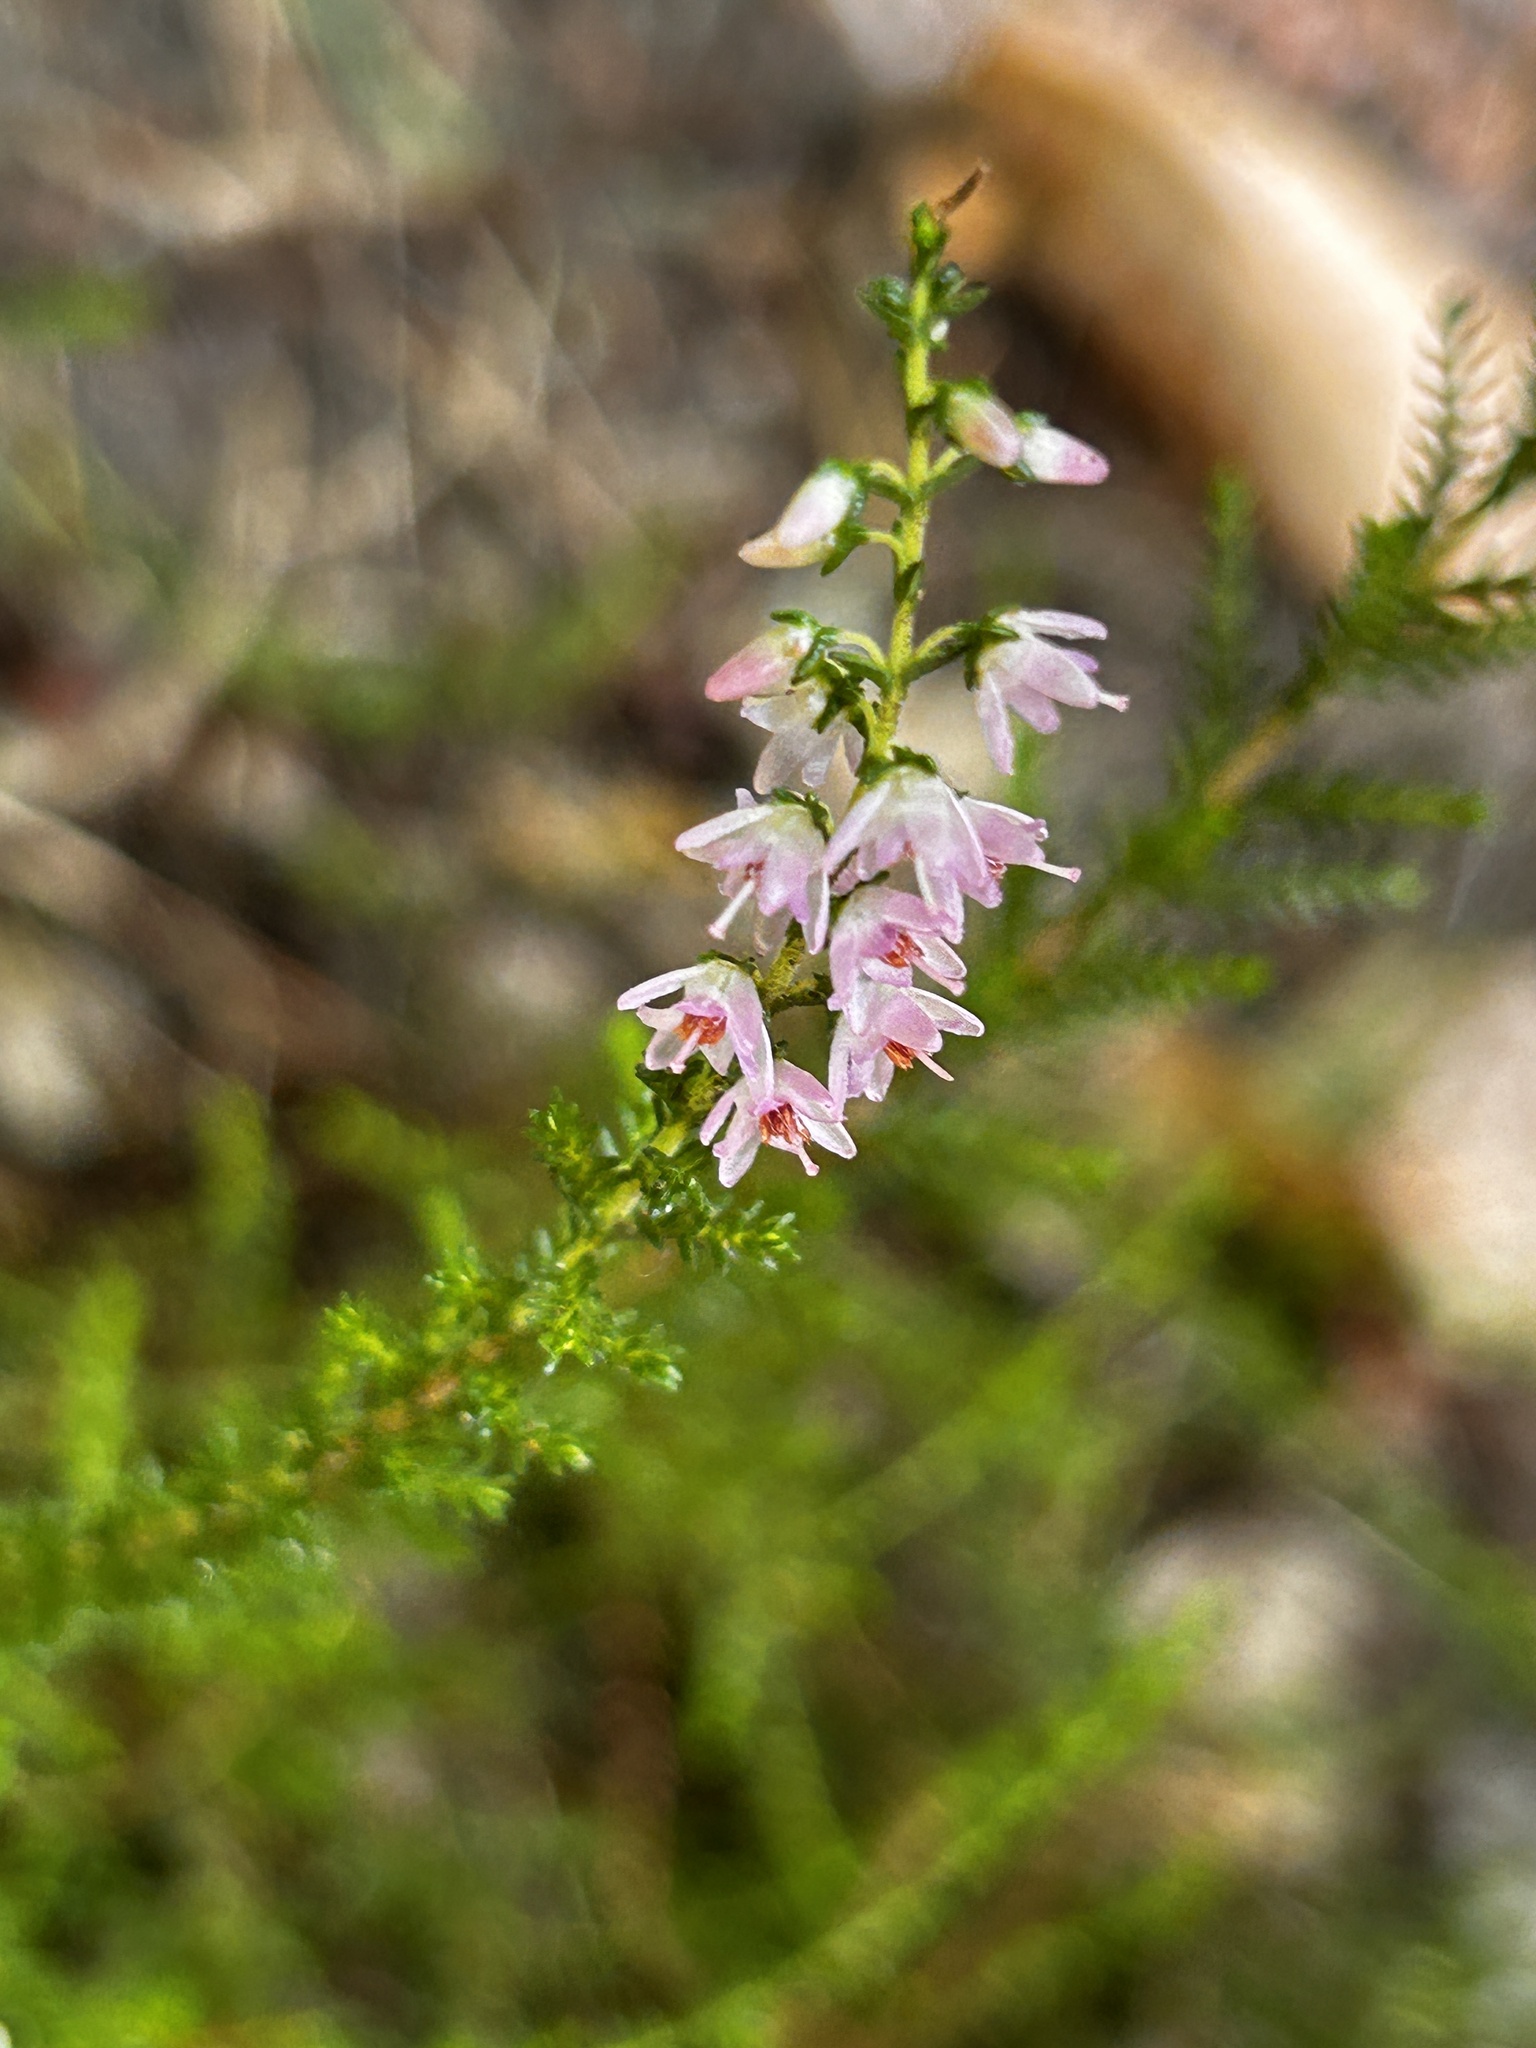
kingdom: Plantae
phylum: Tracheophyta
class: Magnoliopsida
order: Ericales
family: Ericaceae
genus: Calluna
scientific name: Calluna vulgaris
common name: Heather
